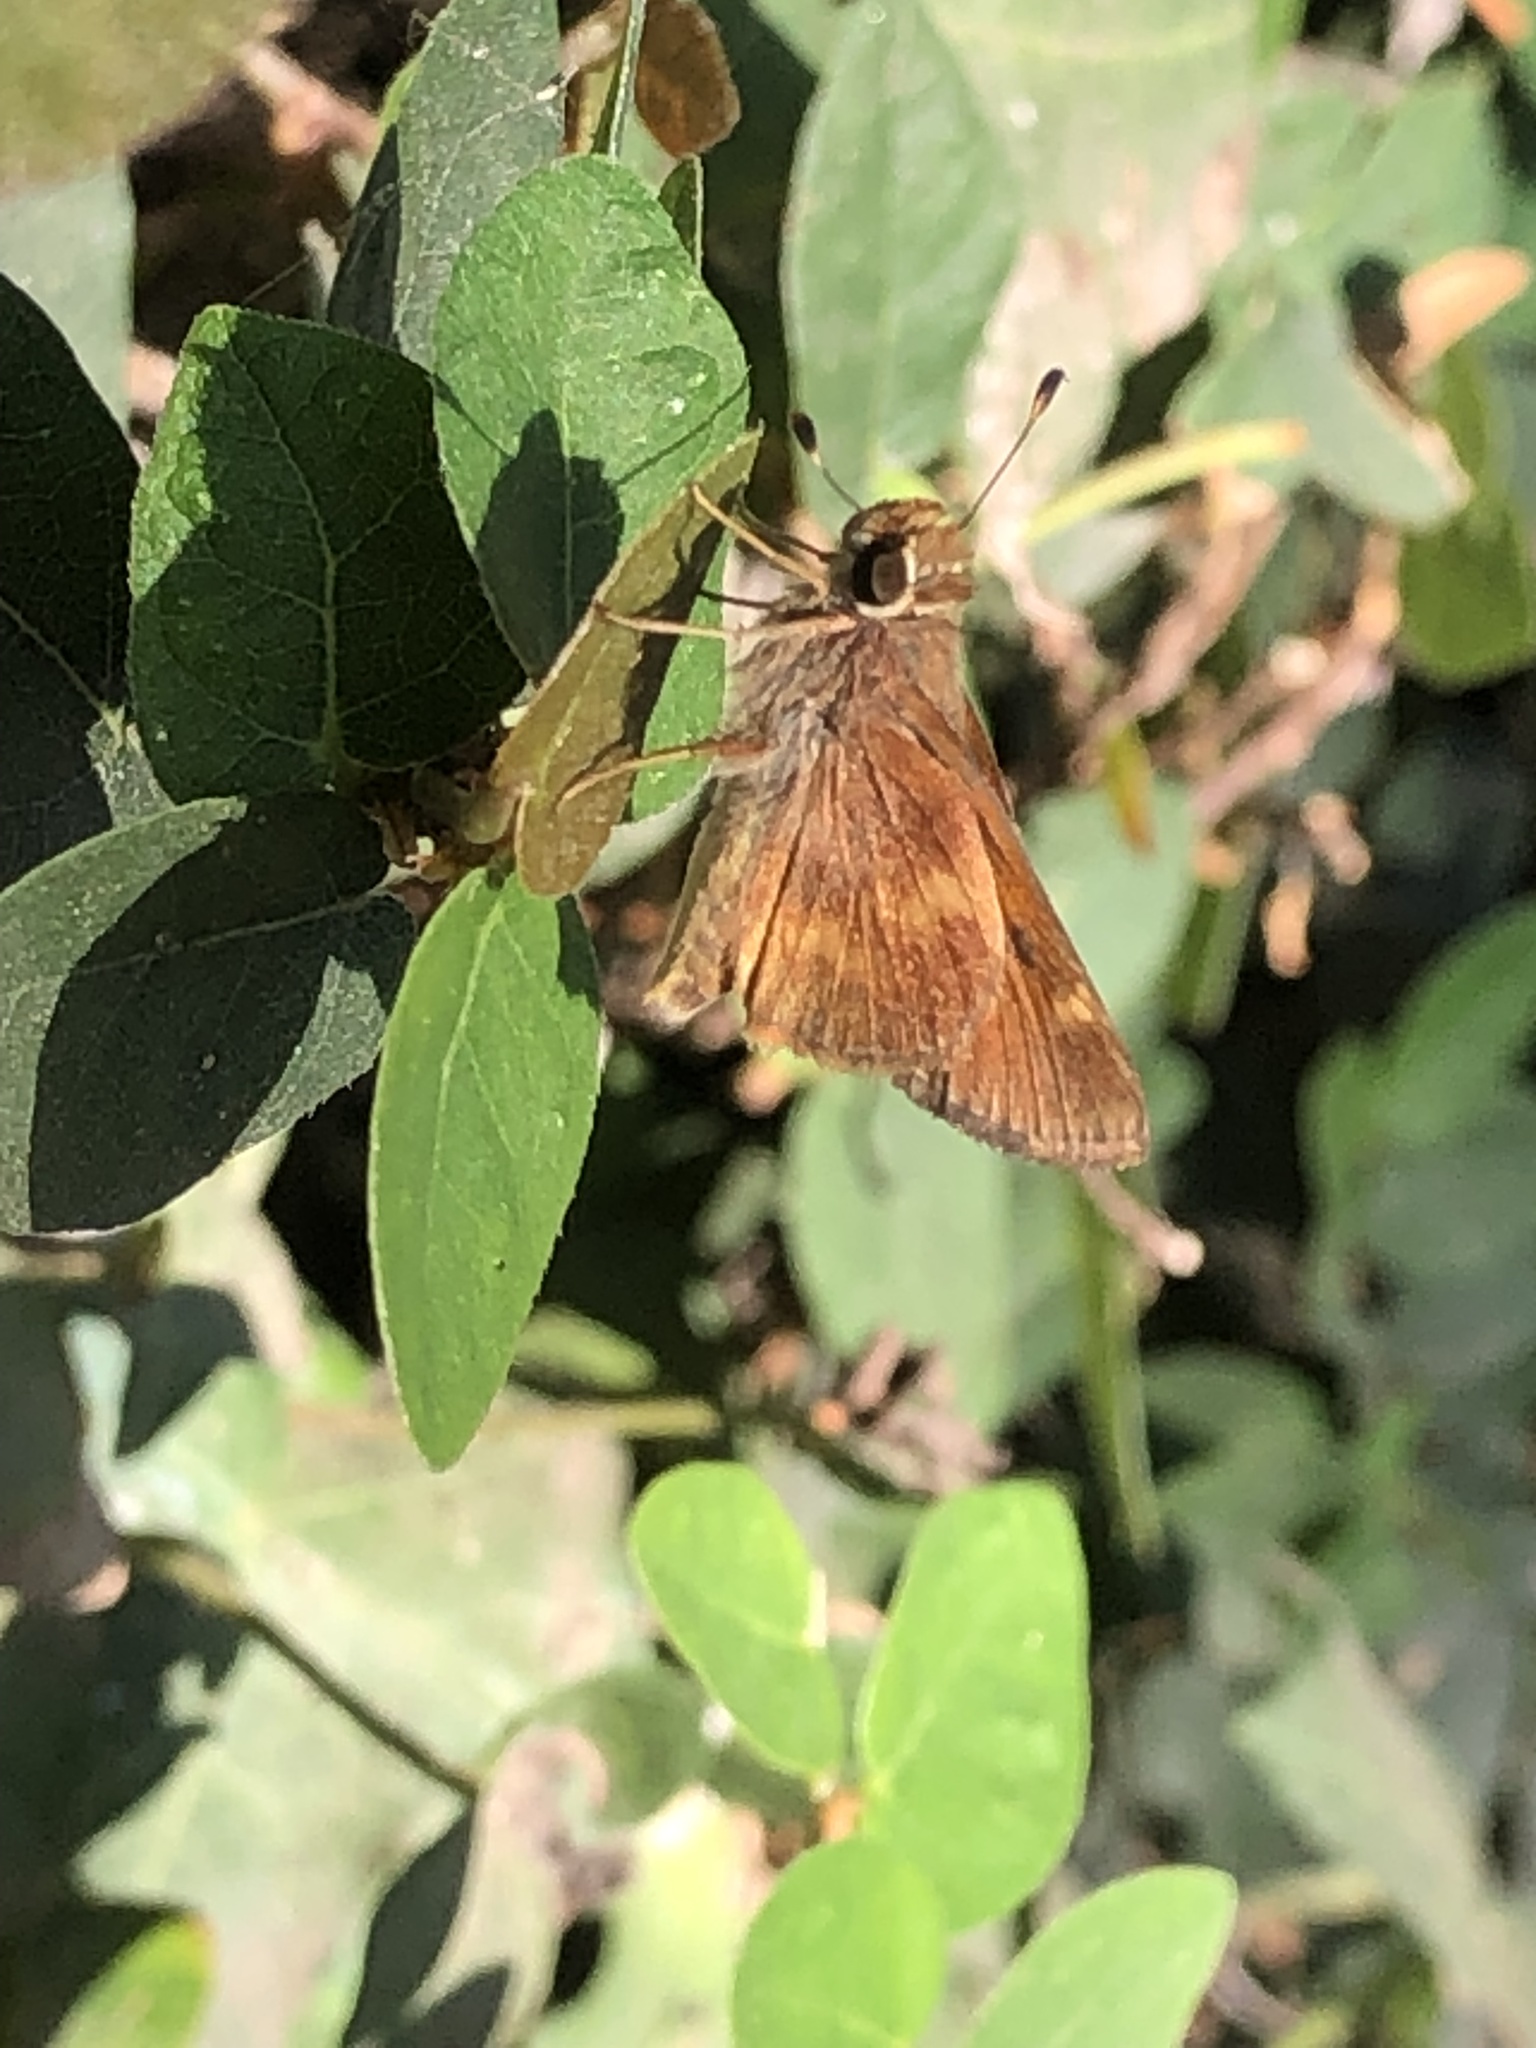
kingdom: Animalia
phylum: Arthropoda
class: Insecta
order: Lepidoptera
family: Hesperiidae
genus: Lon
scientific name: Lon melane
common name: Umber skipper
